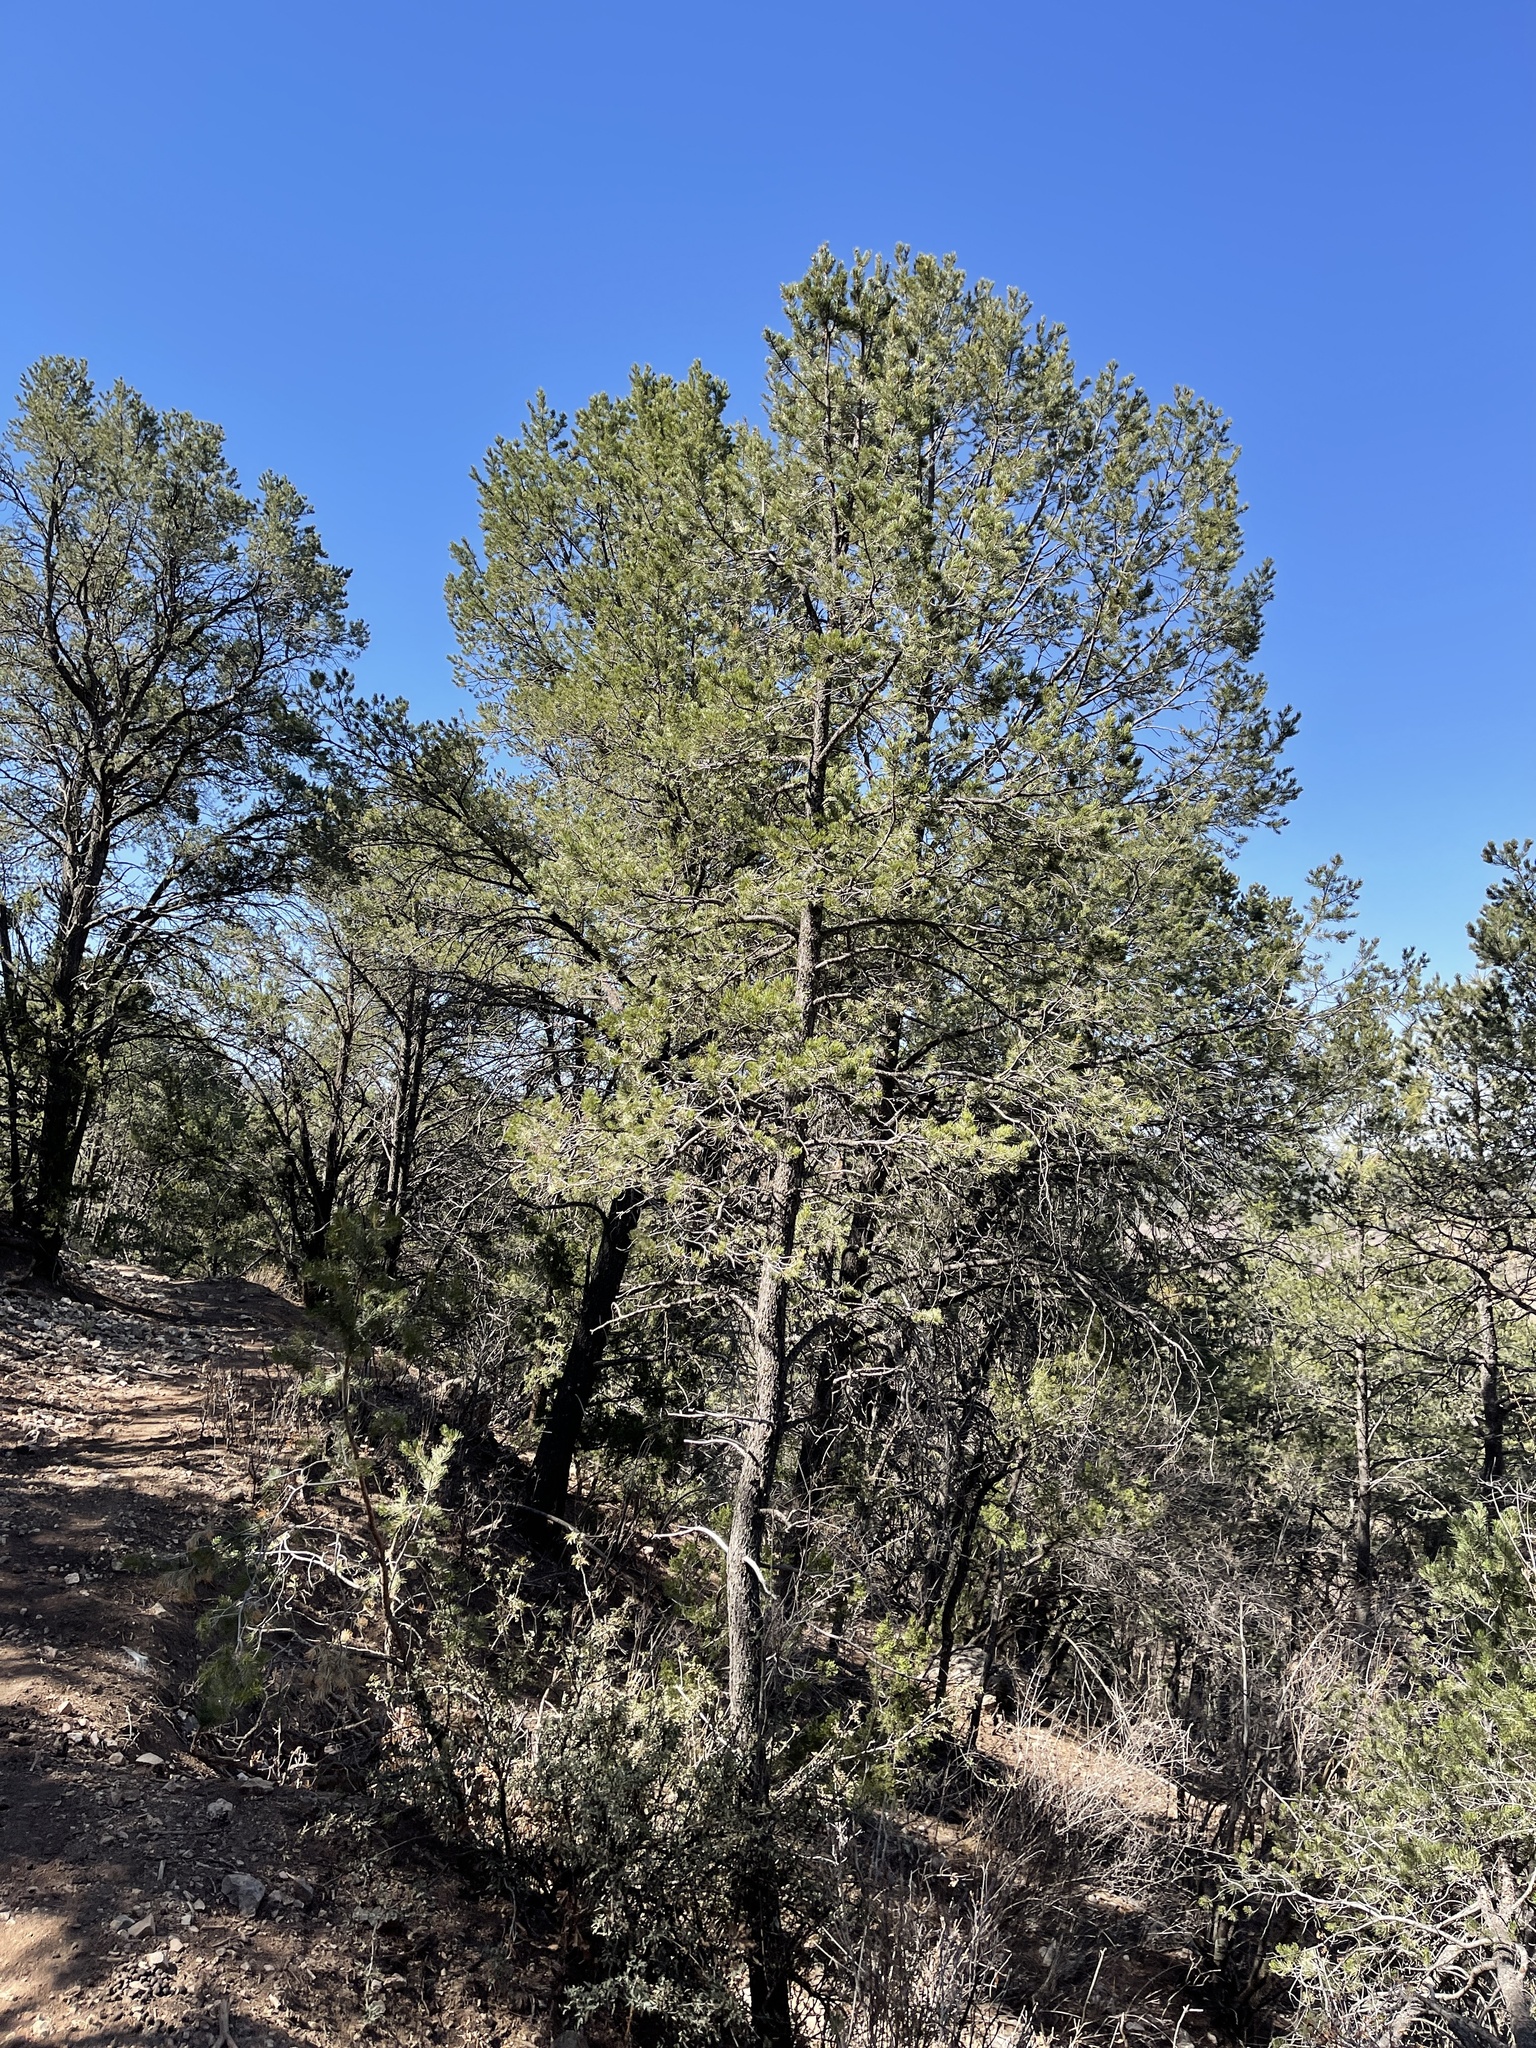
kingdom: Plantae
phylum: Tracheophyta
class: Pinopsida
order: Pinales
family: Pinaceae
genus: Pinus
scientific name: Pinus edulis
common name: Colorado pinyon
